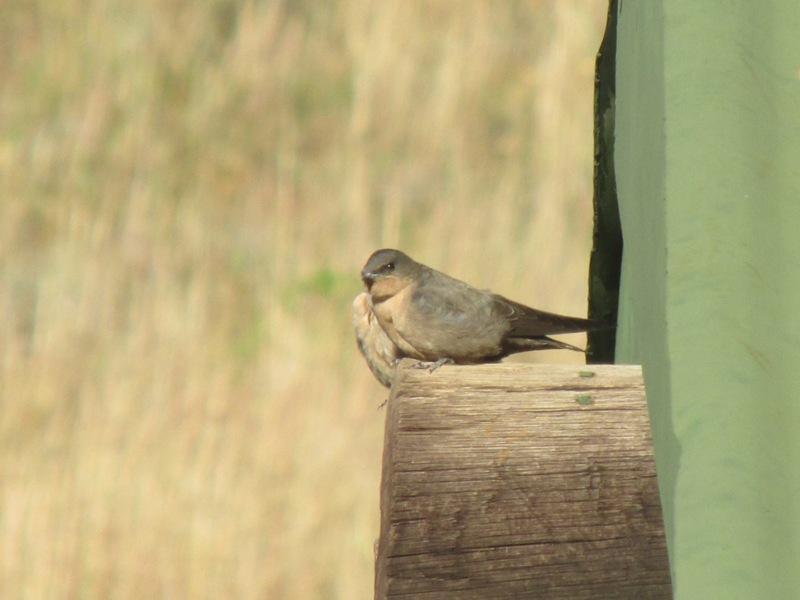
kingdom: Animalia
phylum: Chordata
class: Aves
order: Passeriformes
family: Hirundinidae
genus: Ptyonoprogne
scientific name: Ptyonoprogne fuligula
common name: Rock martin
